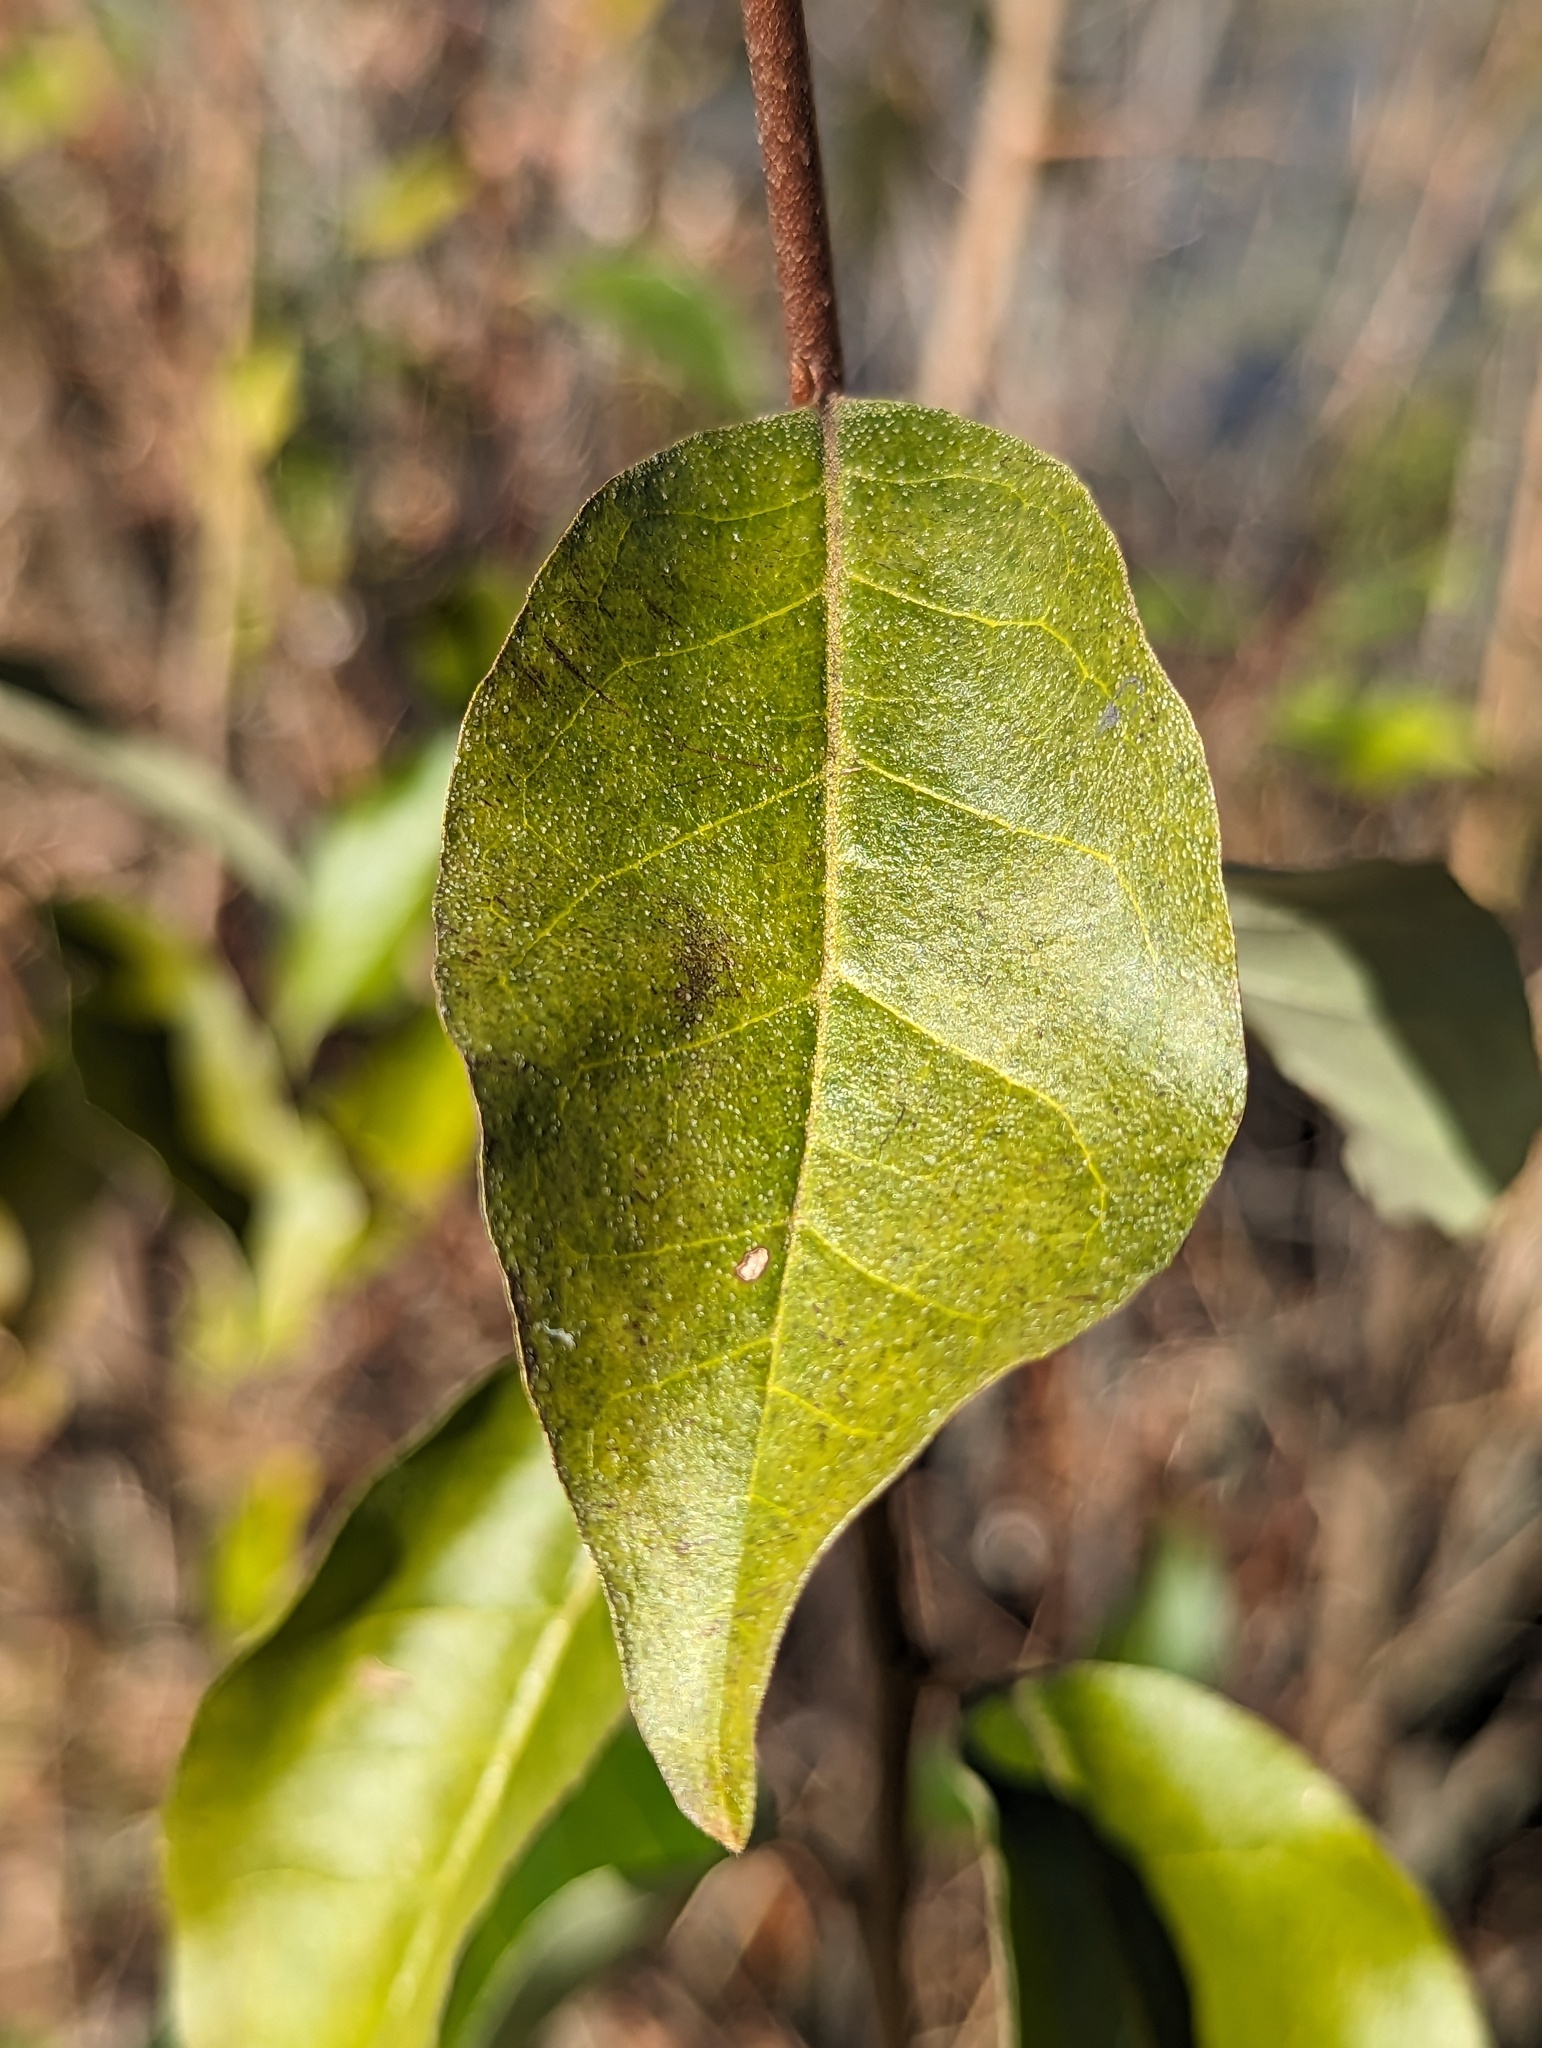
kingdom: Plantae
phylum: Tracheophyta
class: Magnoliopsida
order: Rosales
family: Elaeagnaceae
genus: Elaeagnus
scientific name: Elaeagnus umbellata
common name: Autumn olive
